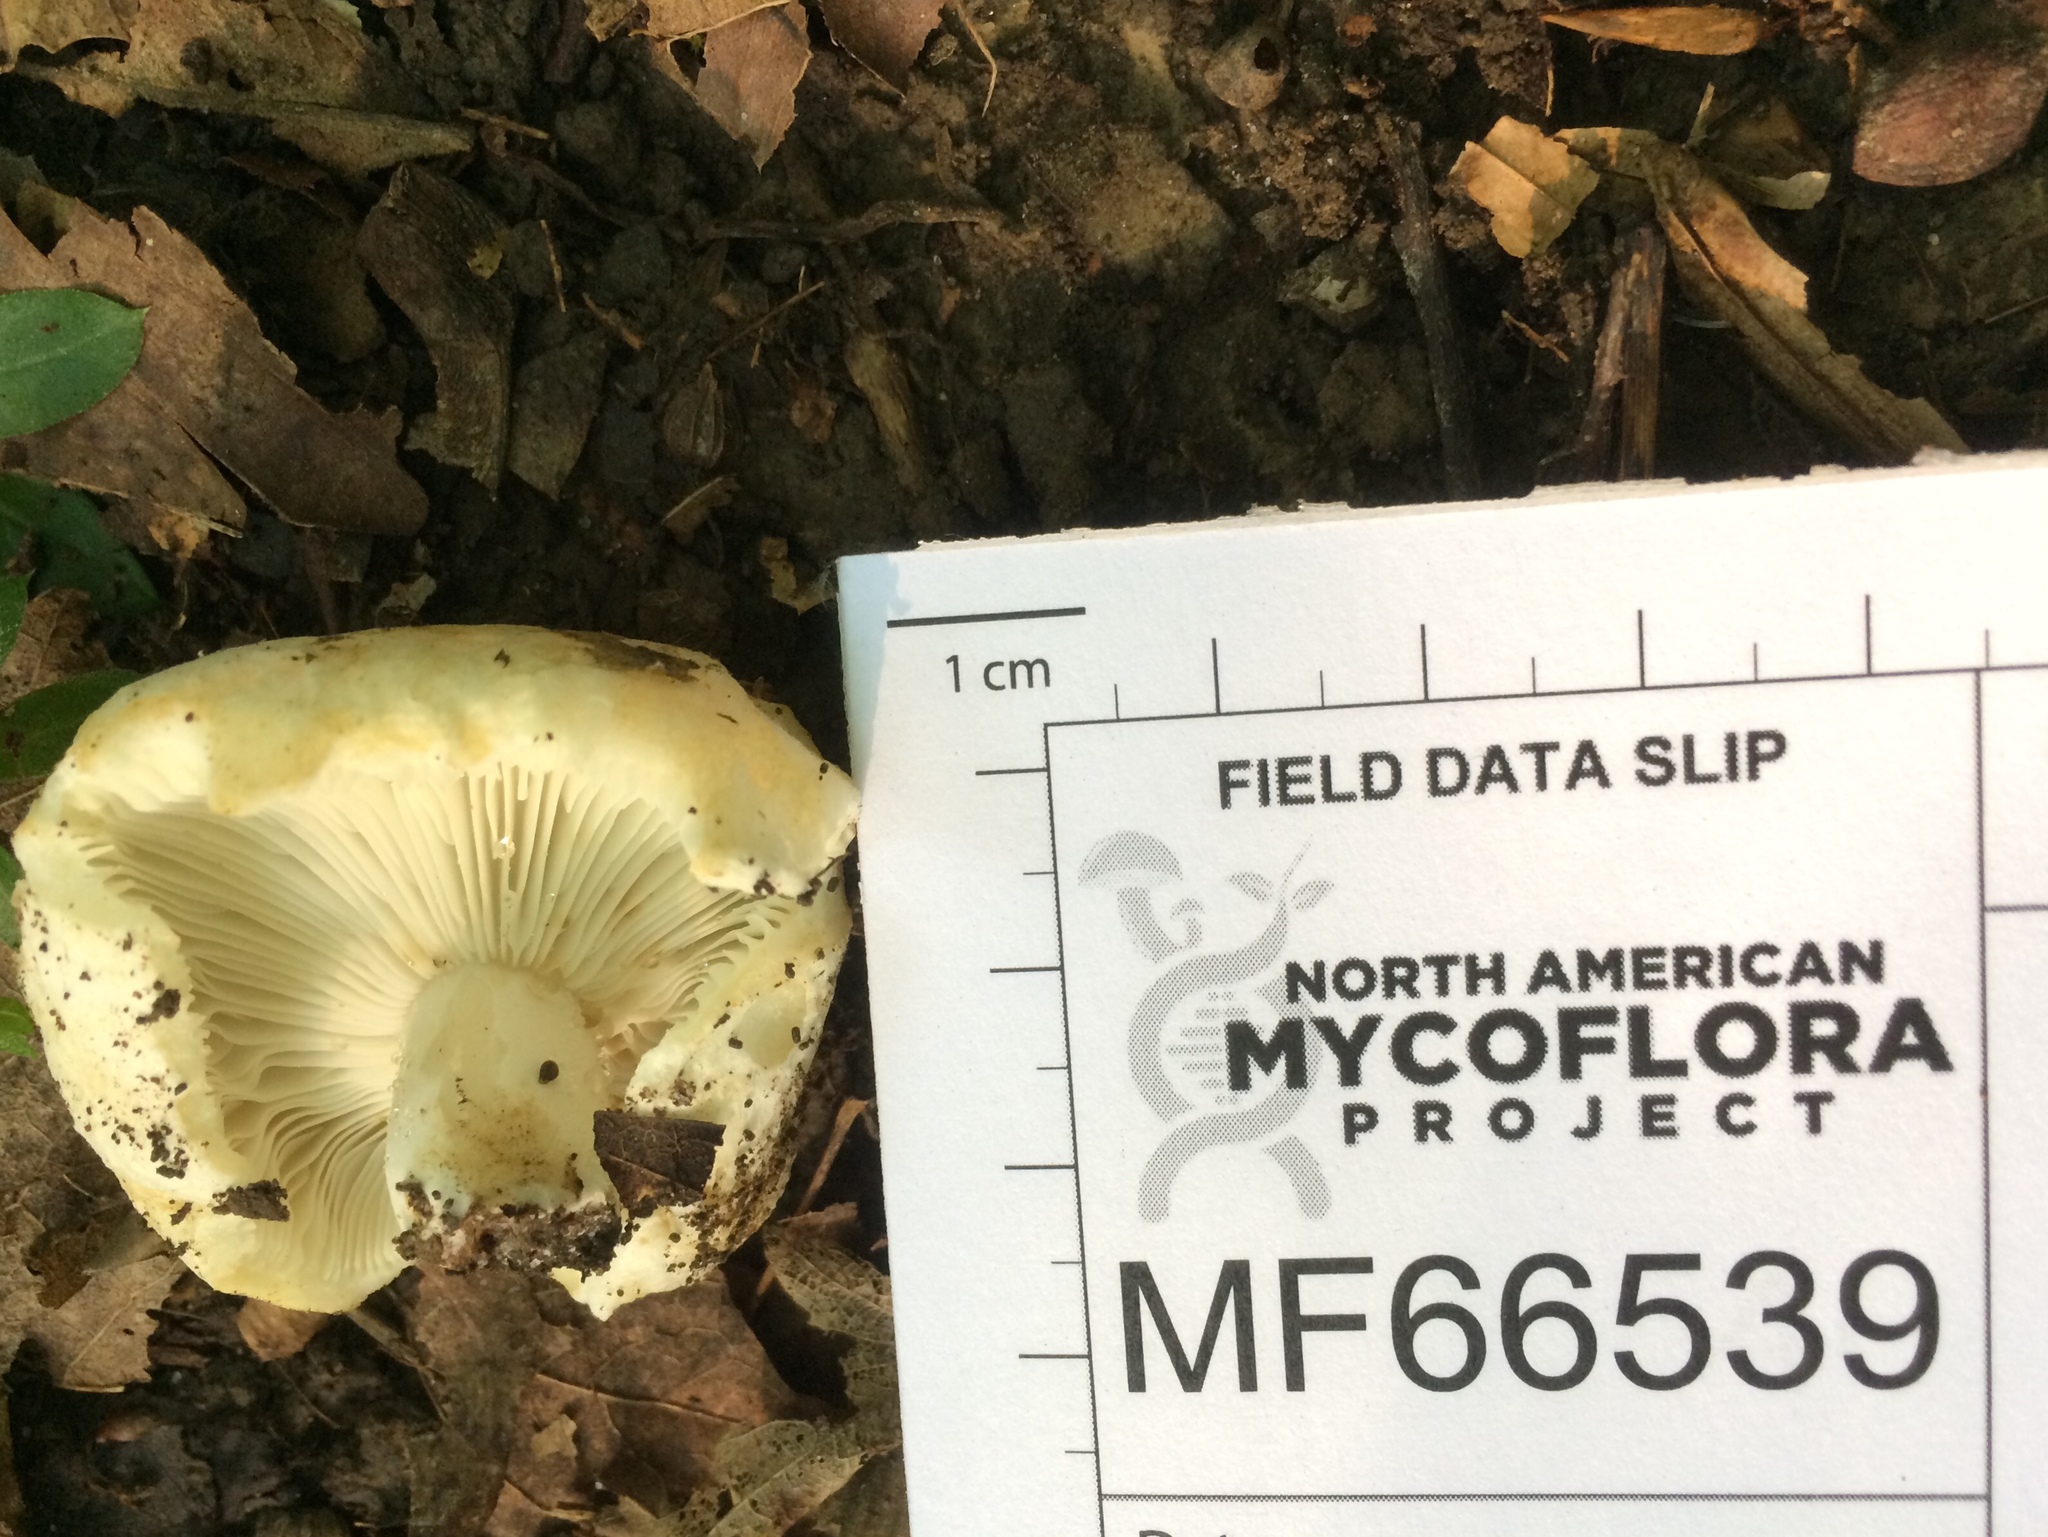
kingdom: Fungi
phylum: Basidiomycota
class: Agaricomycetes
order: Russulales
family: Russulaceae
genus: Russula
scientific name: Russula brevipes
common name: Short-stemmed russula
